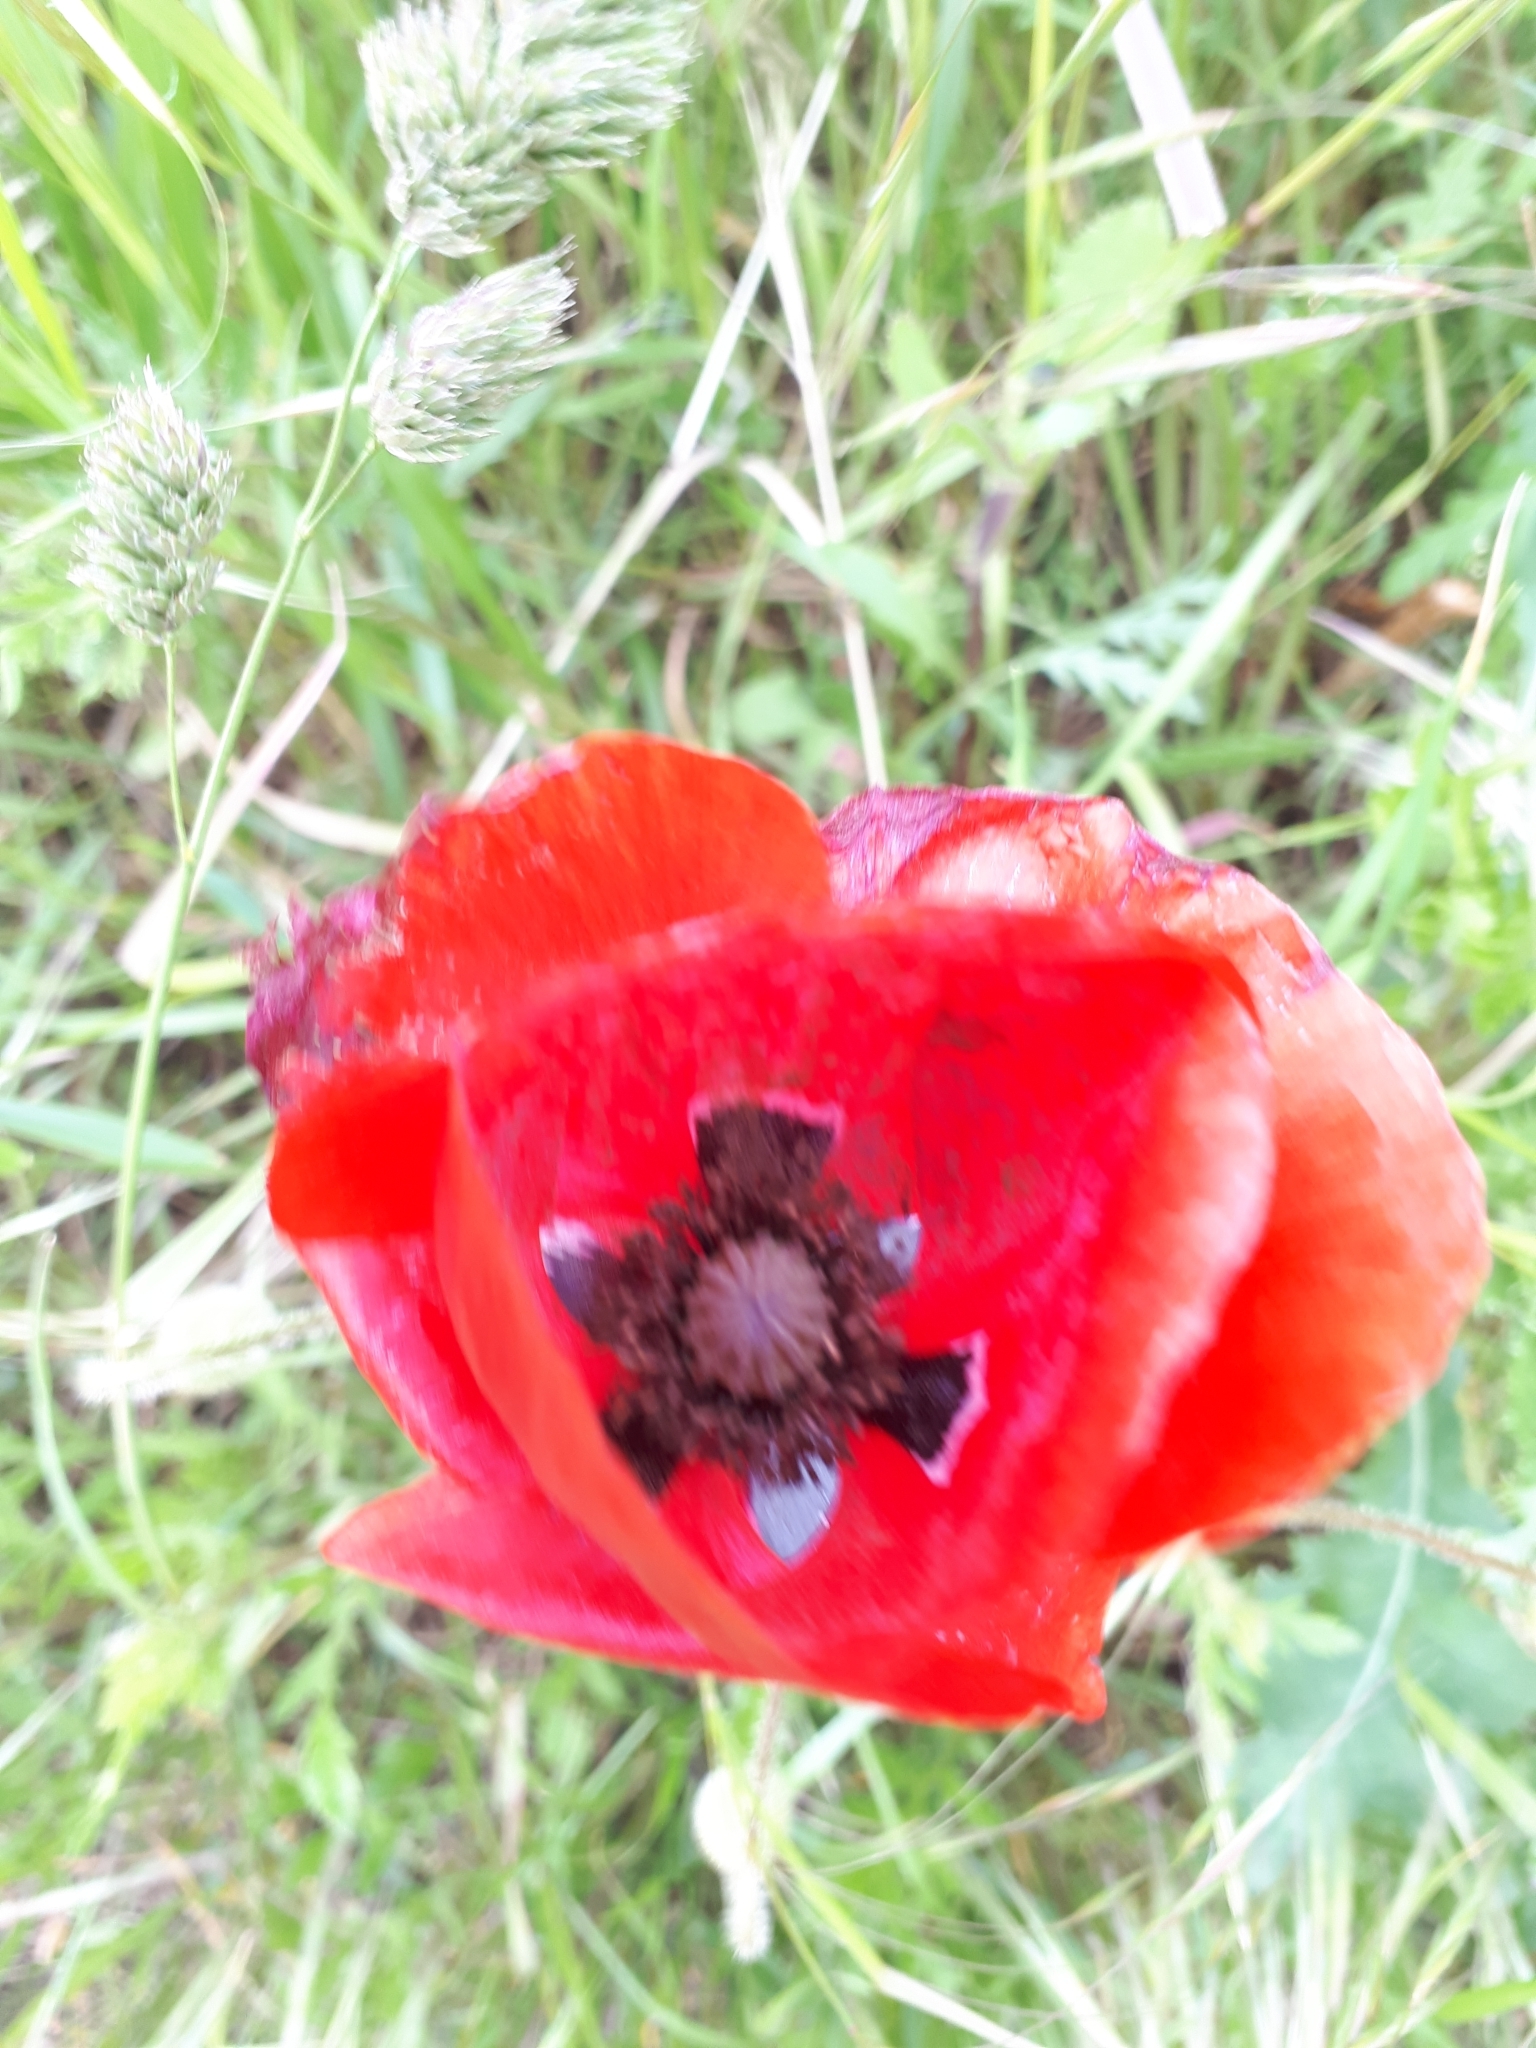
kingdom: Plantae
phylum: Tracheophyta
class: Magnoliopsida
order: Ranunculales
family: Papaveraceae
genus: Papaver
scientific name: Papaver rhoeas
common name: Corn poppy
